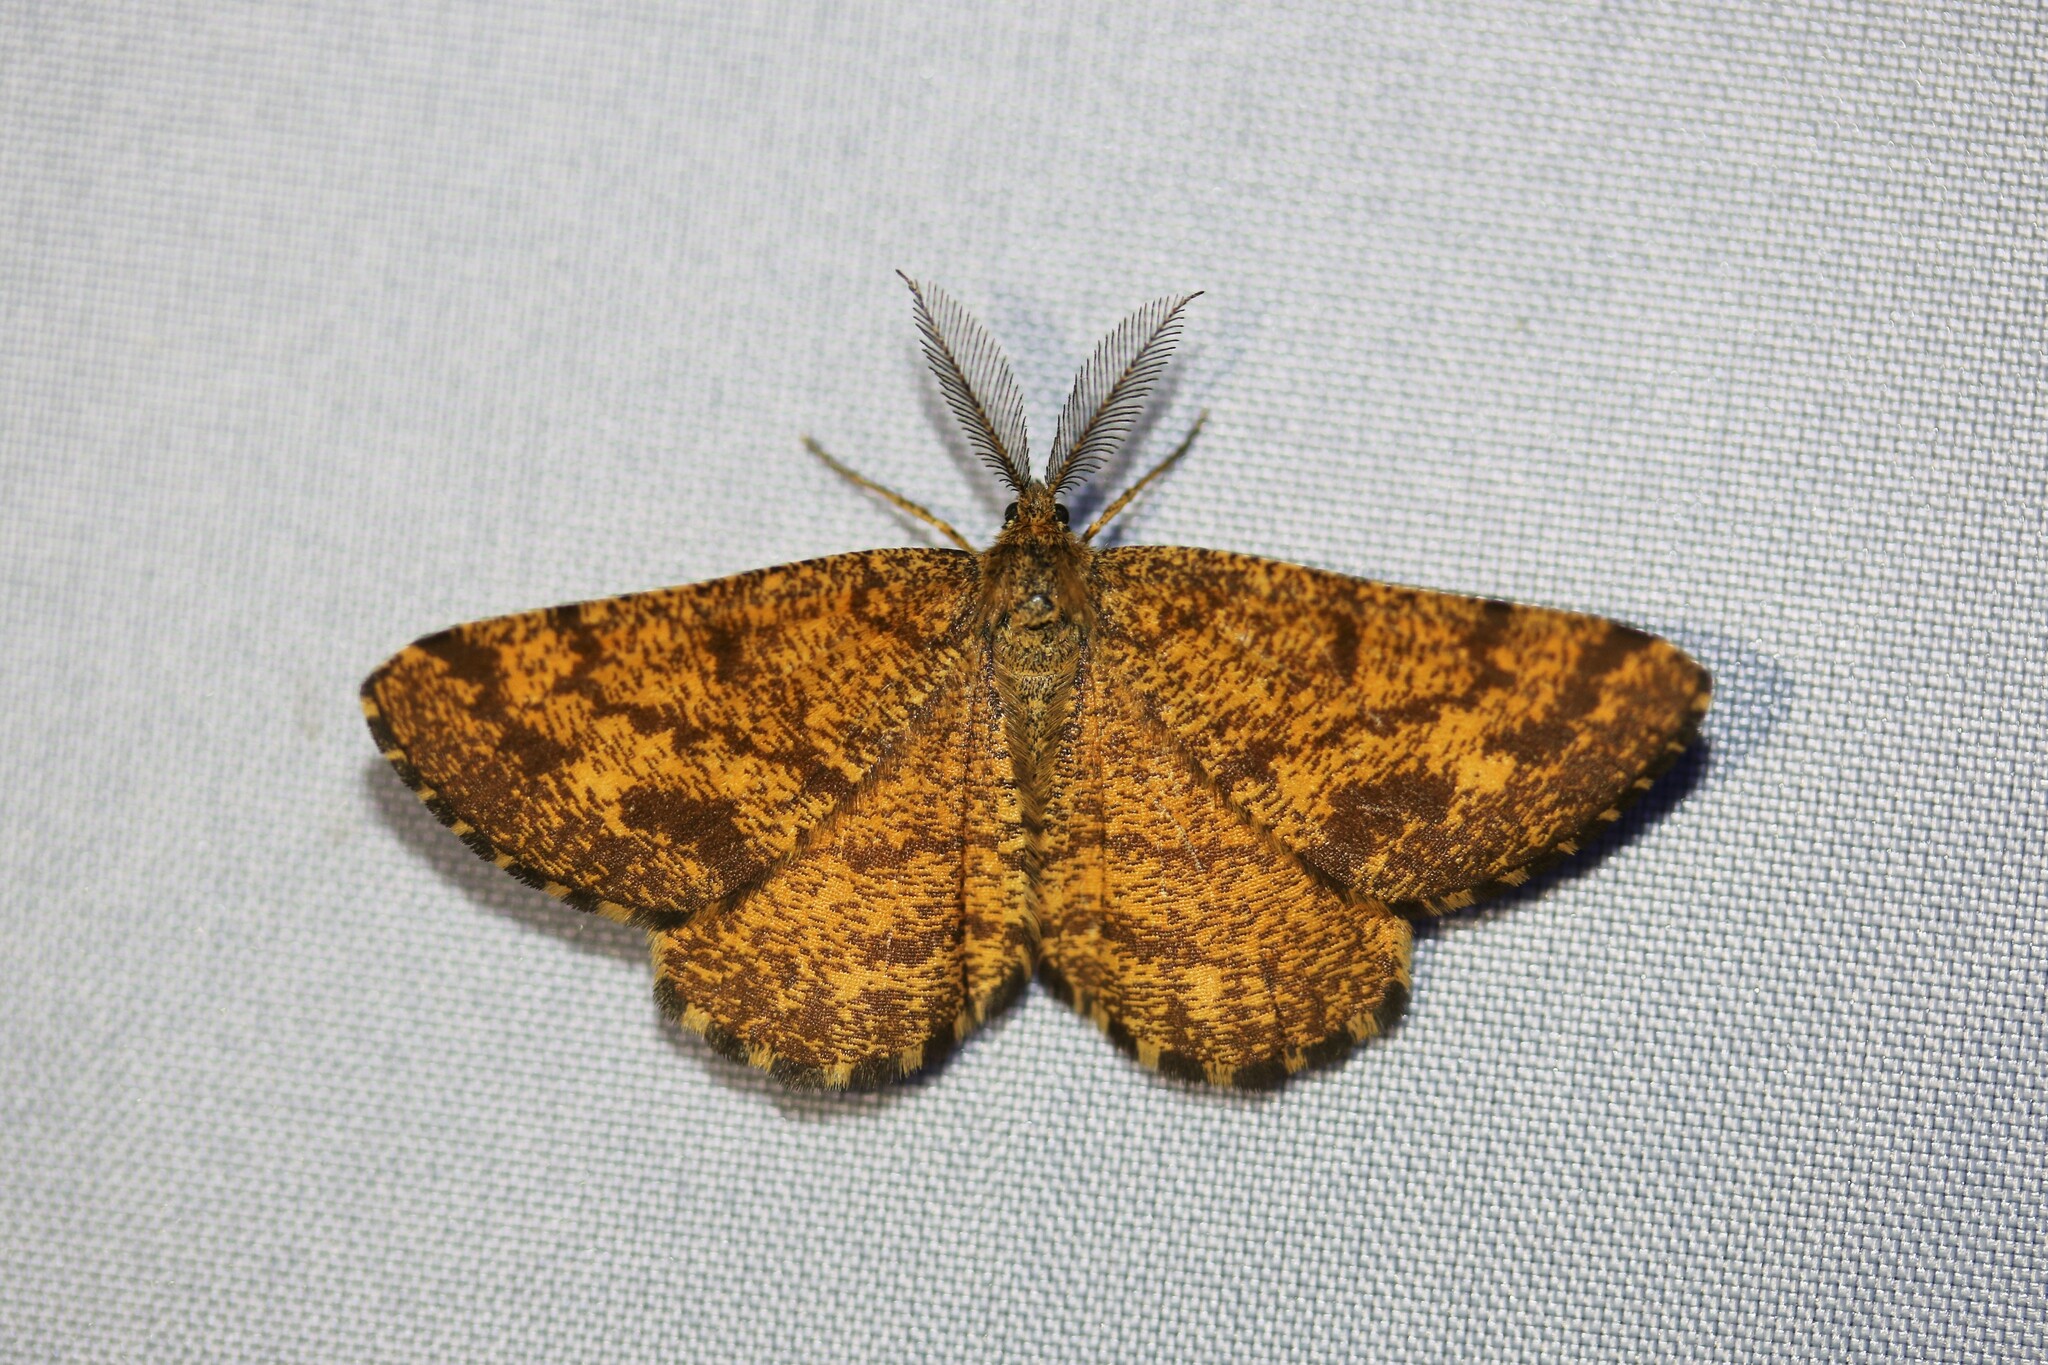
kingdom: Animalia
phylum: Arthropoda
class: Insecta
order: Lepidoptera
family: Geometridae
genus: Ematurga
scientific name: Ematurga atomaria
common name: Common heath
